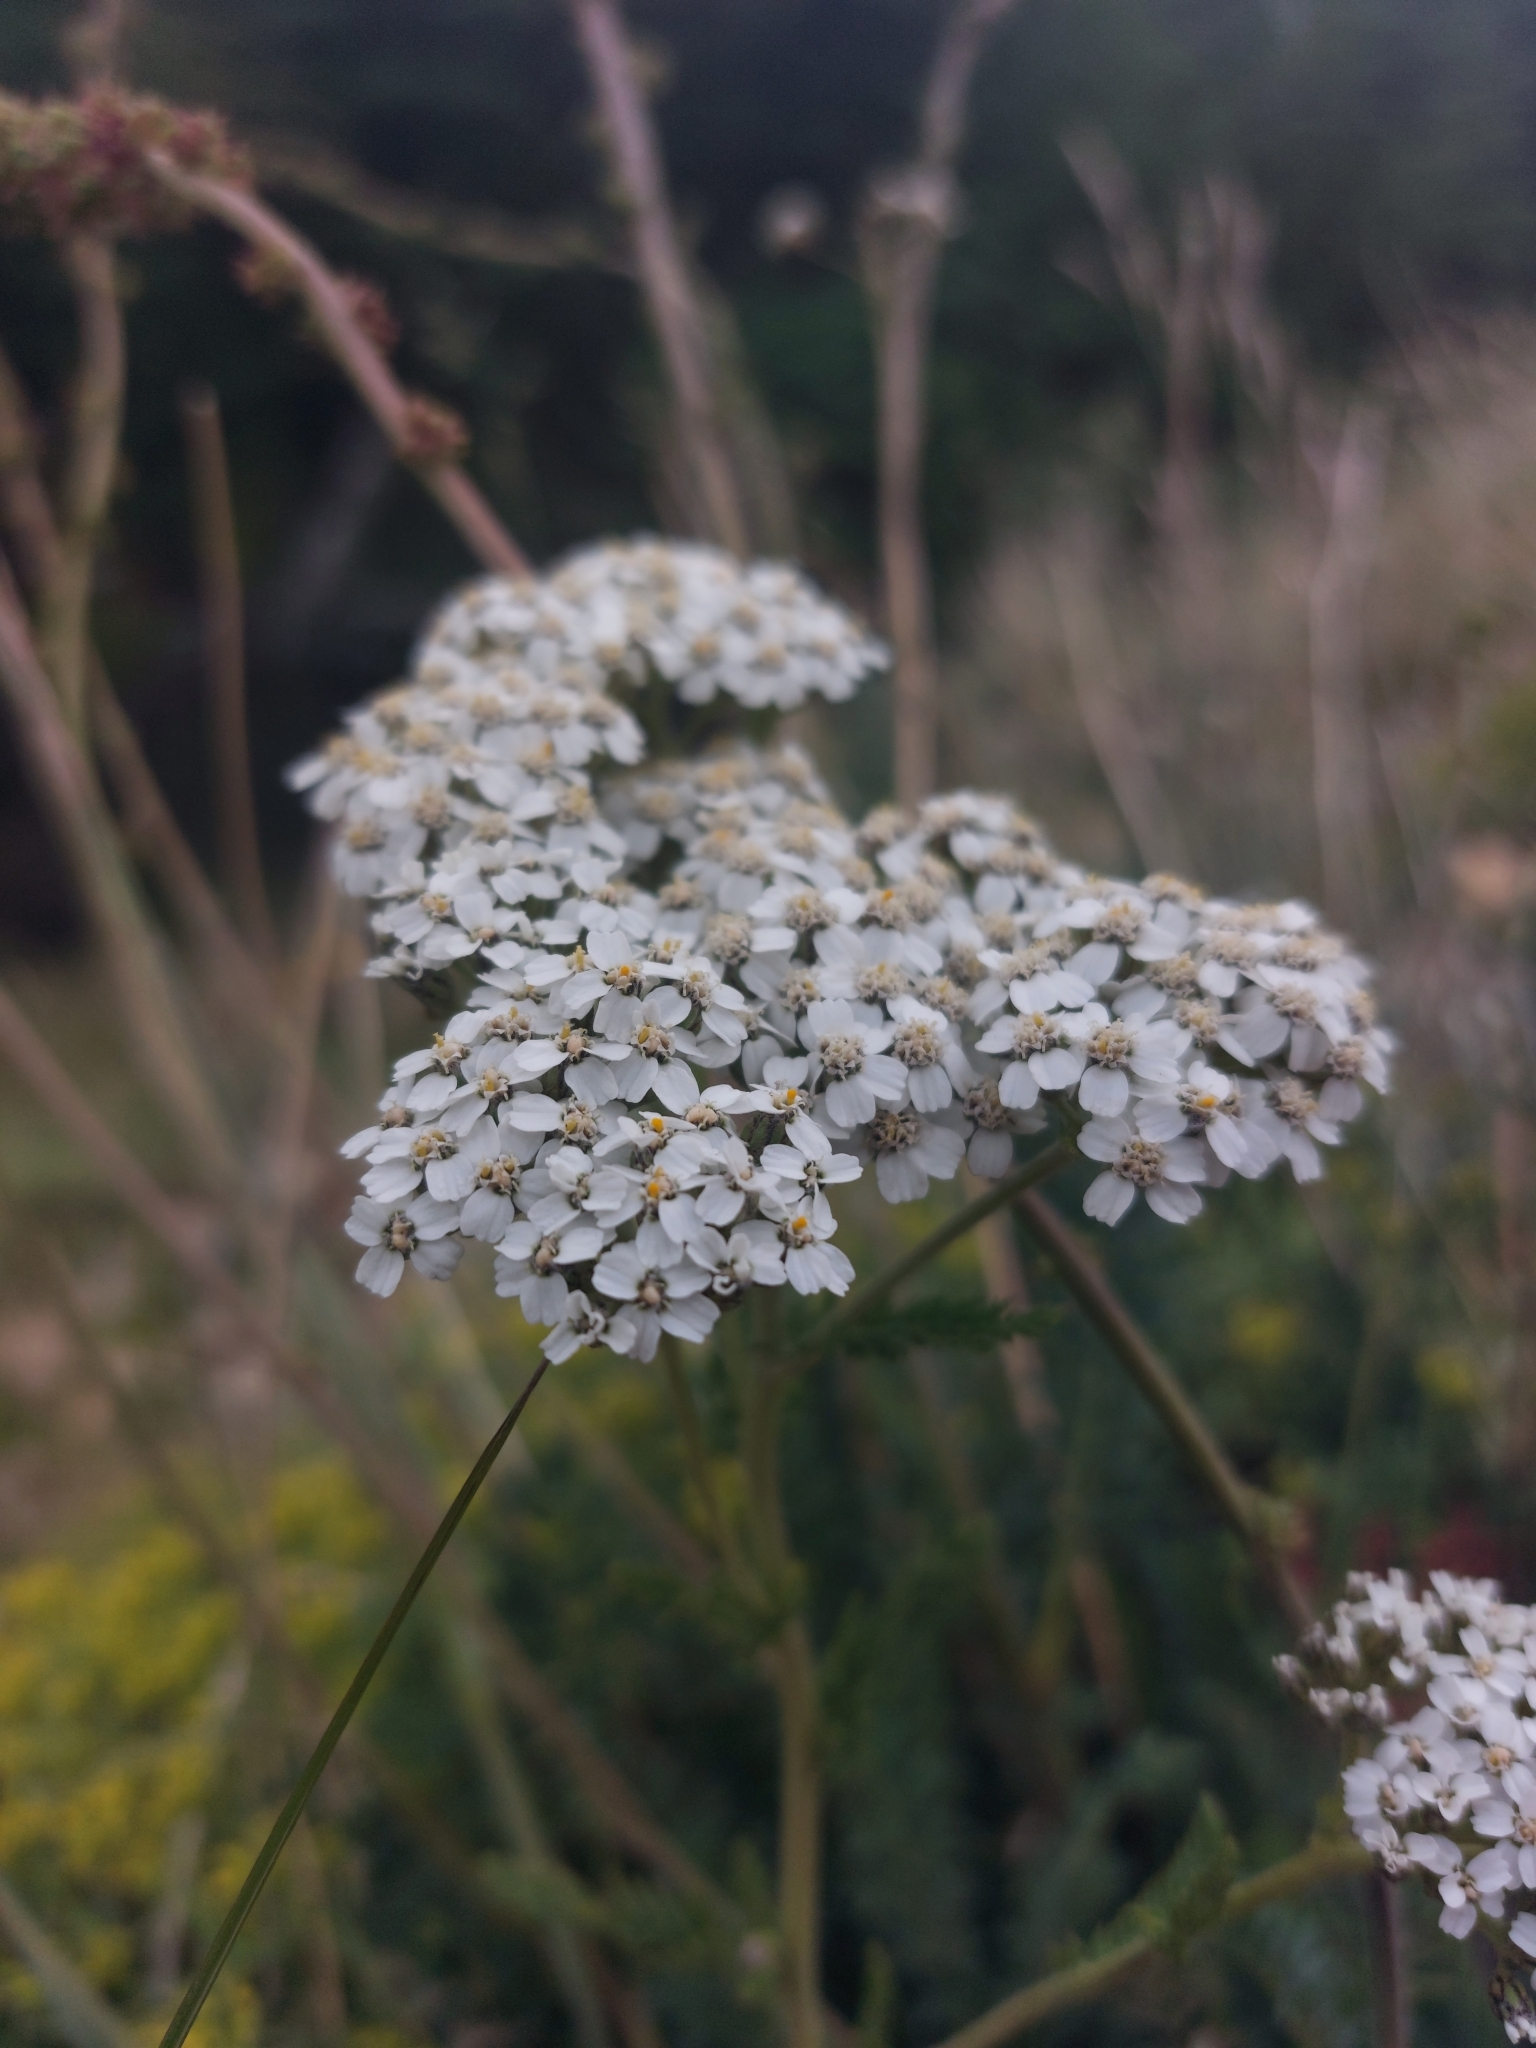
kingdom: Plantae
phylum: Tracheophyta
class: Magnoliopsida
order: Asterales
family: Asteraceae
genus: Achillea
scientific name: Achillea millefolium
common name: Yarrow
